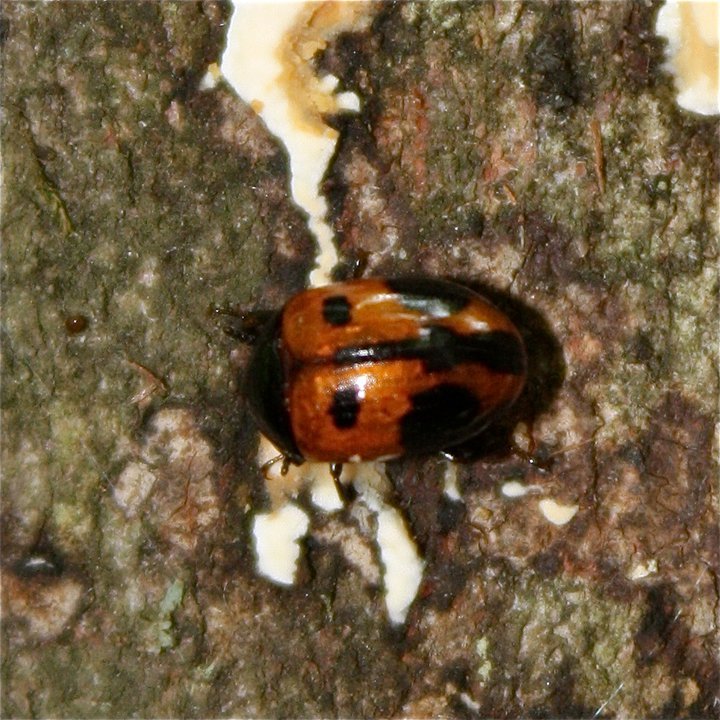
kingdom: Animalia
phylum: Arthropoda
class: Insecta
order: Coleoptera
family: Tenebrionidae
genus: Diaperis
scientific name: Diaperis maculata
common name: Darkling beetle
